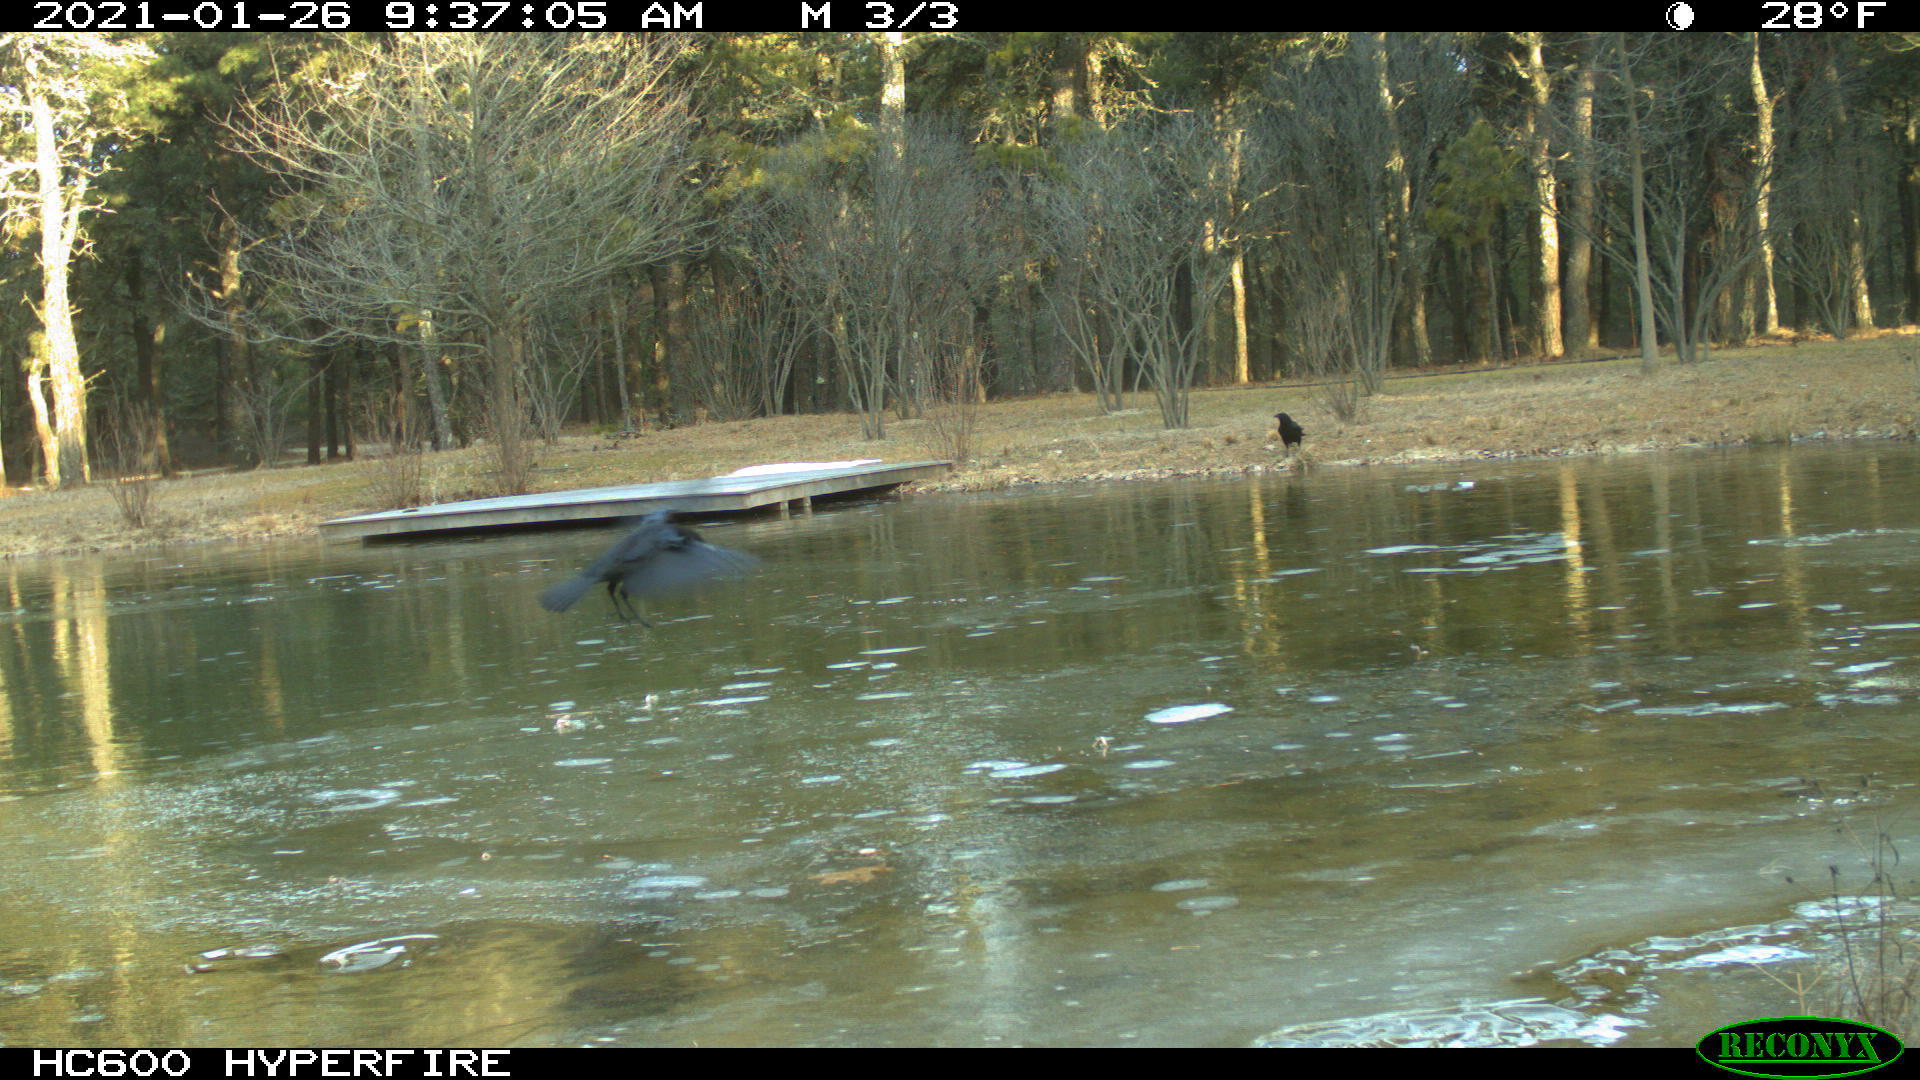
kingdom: Animalia
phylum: Chordata
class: Aves
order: Passeriformes
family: Corvidae
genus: Corvus
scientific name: Corvus brachyrhynchos
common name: American crow
